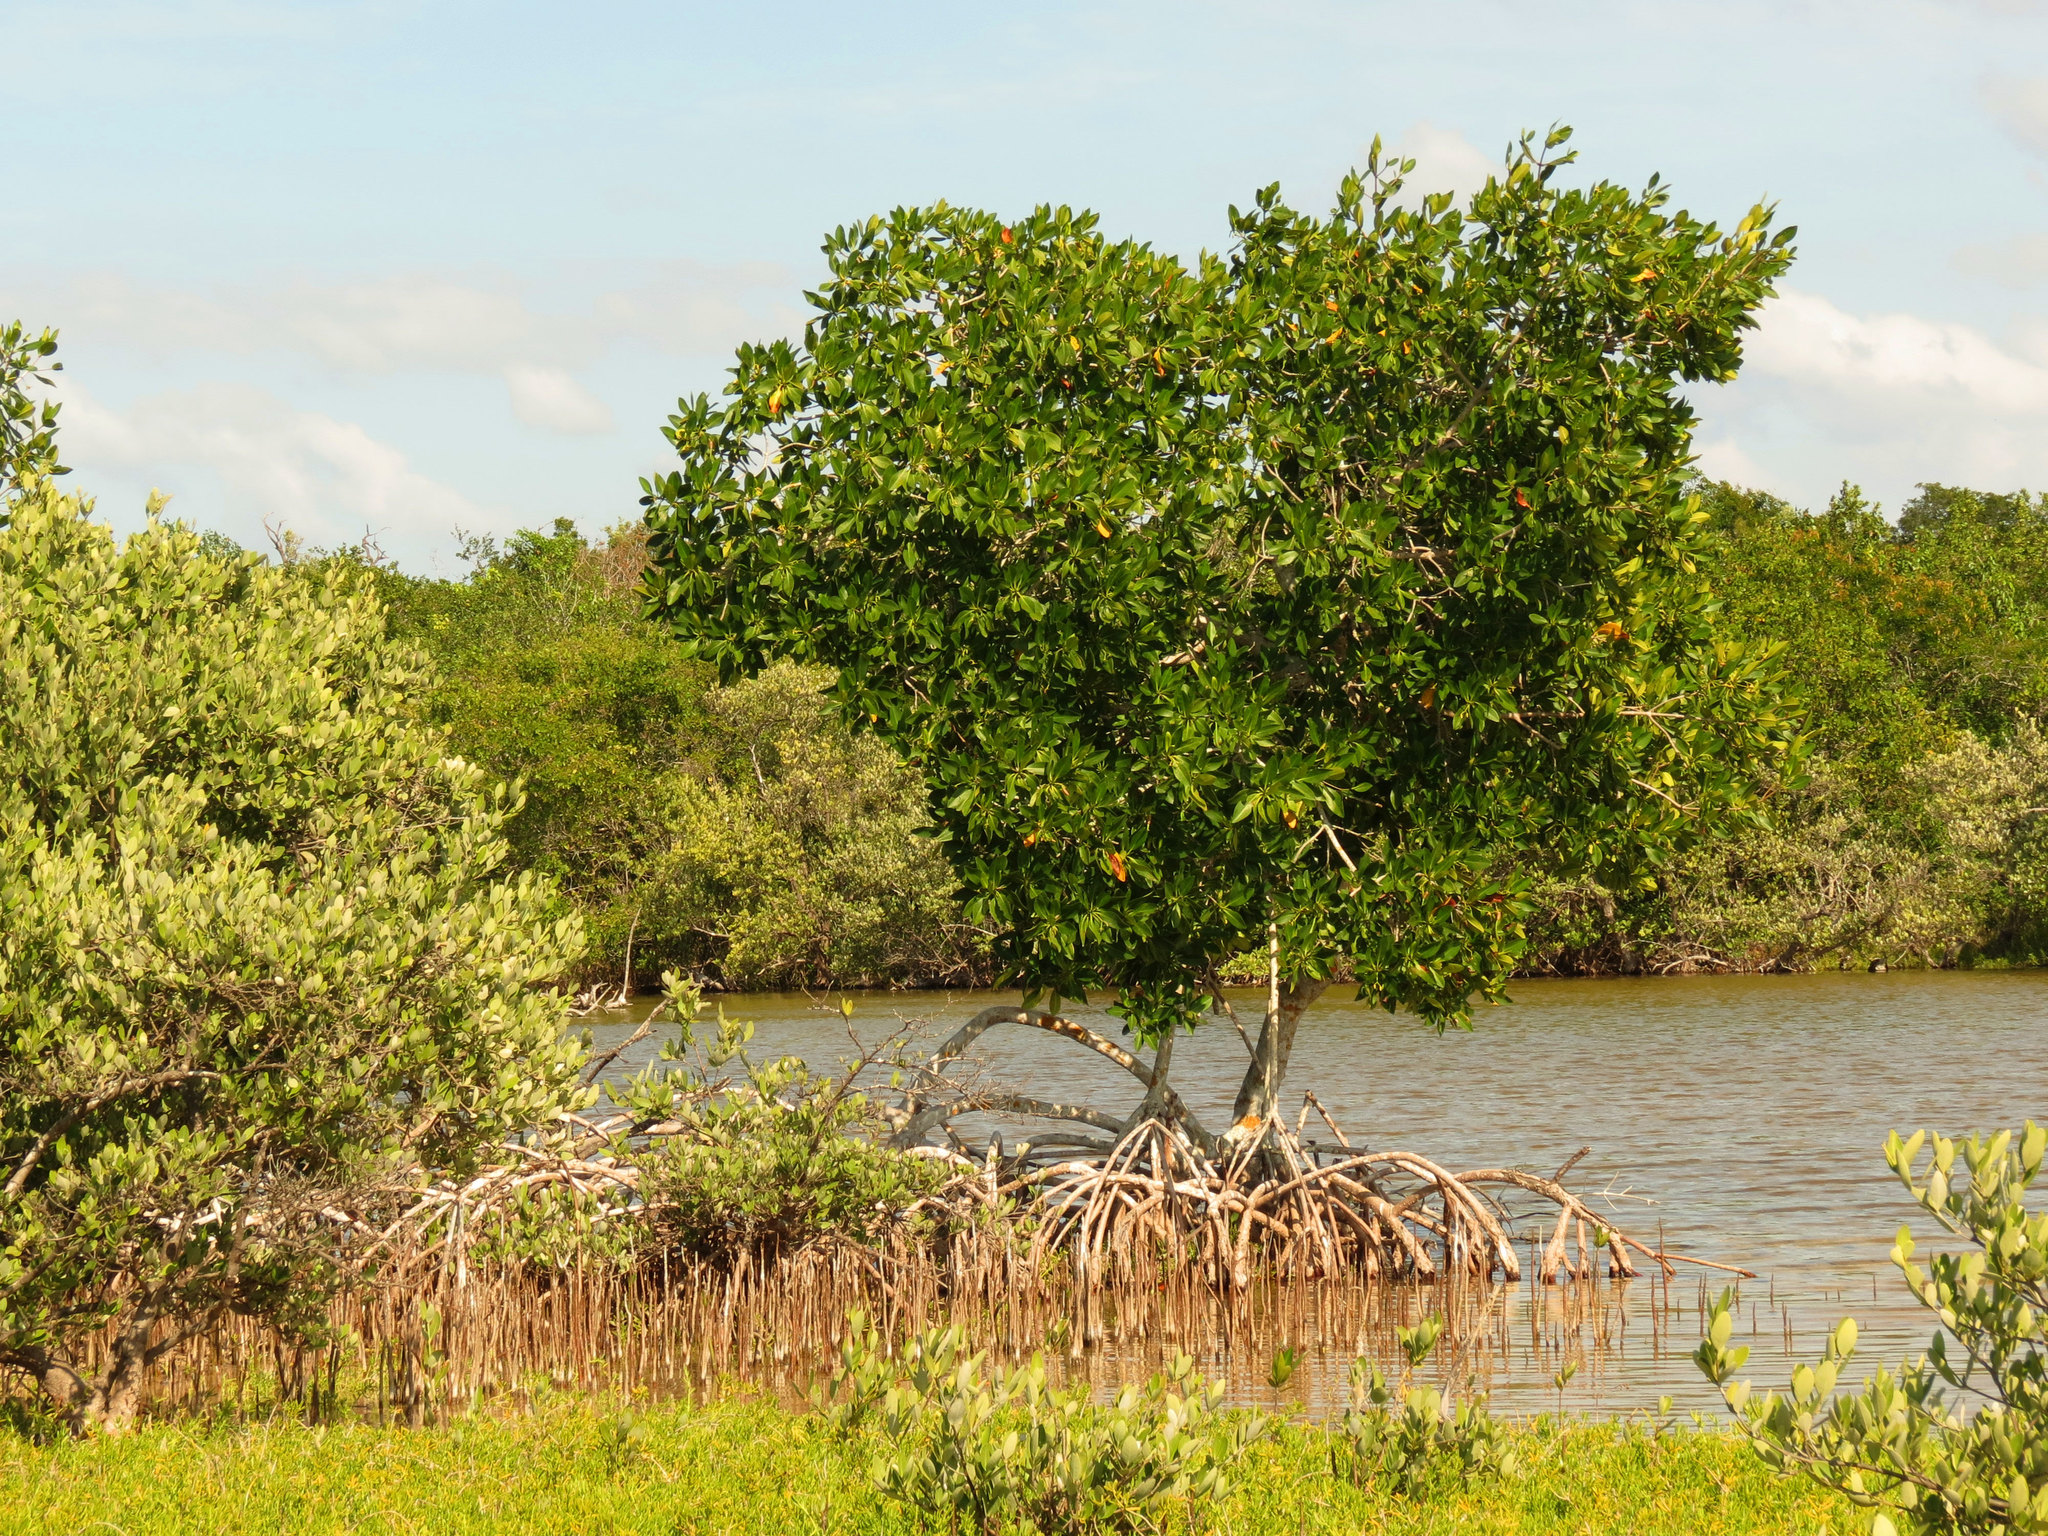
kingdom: Plantae
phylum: Tracheophyta
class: Magnoliopsida
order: Malpighiales
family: Rhizophoraceae
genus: Rhizophora
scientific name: Rhizophora mangle
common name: Red mangrove
